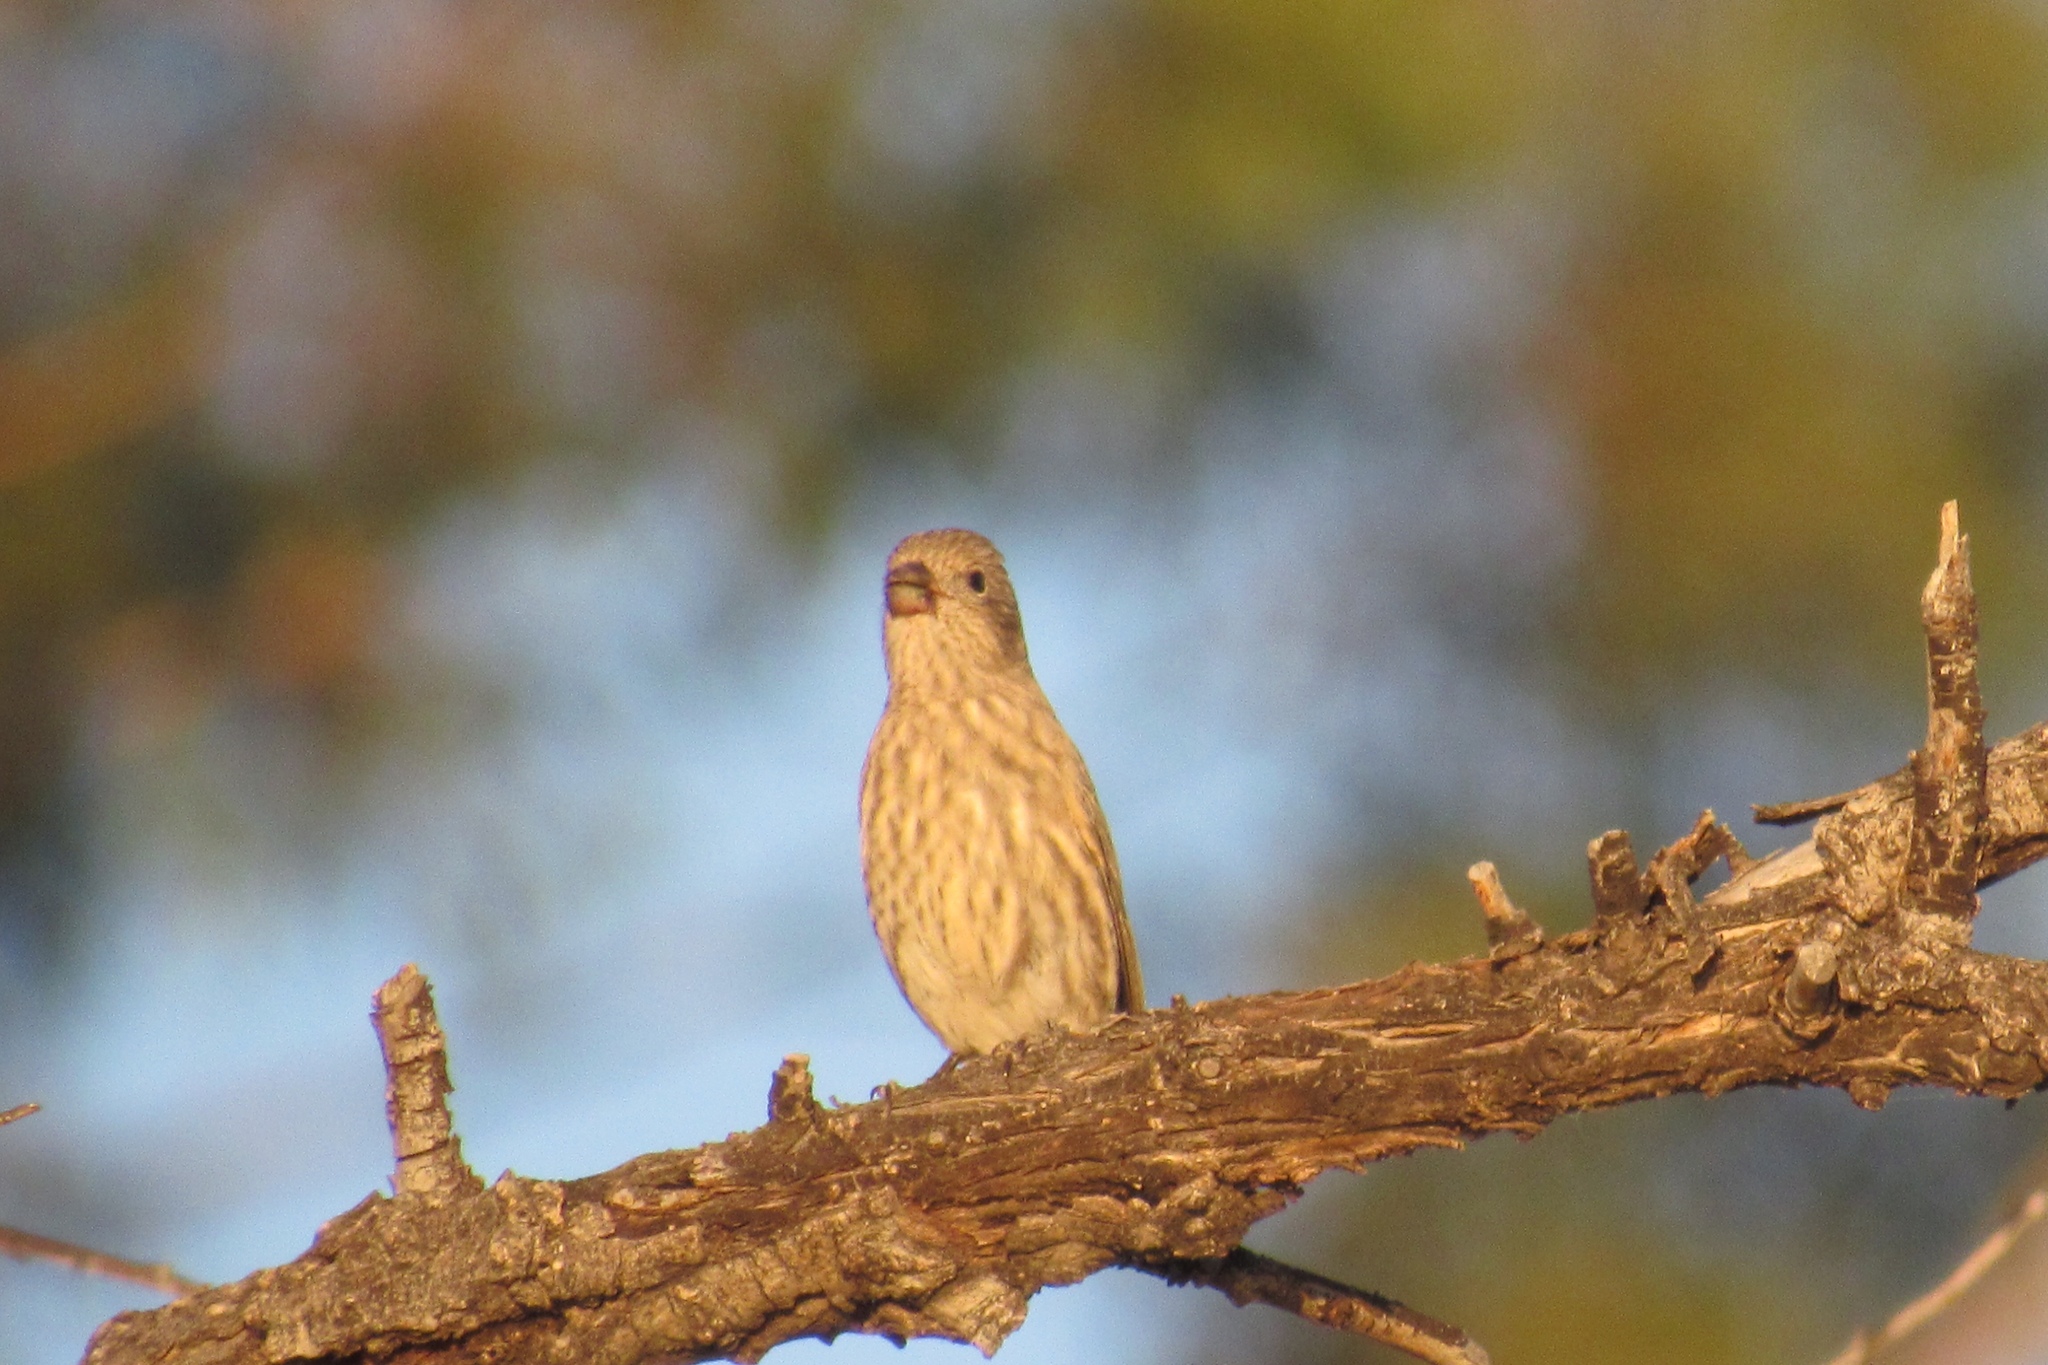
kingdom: Animalia
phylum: Chordata
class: Aves
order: Passeriformes
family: Fringillidae
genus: Haemorhous
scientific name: Haemorhous mexicanus
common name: House finch
